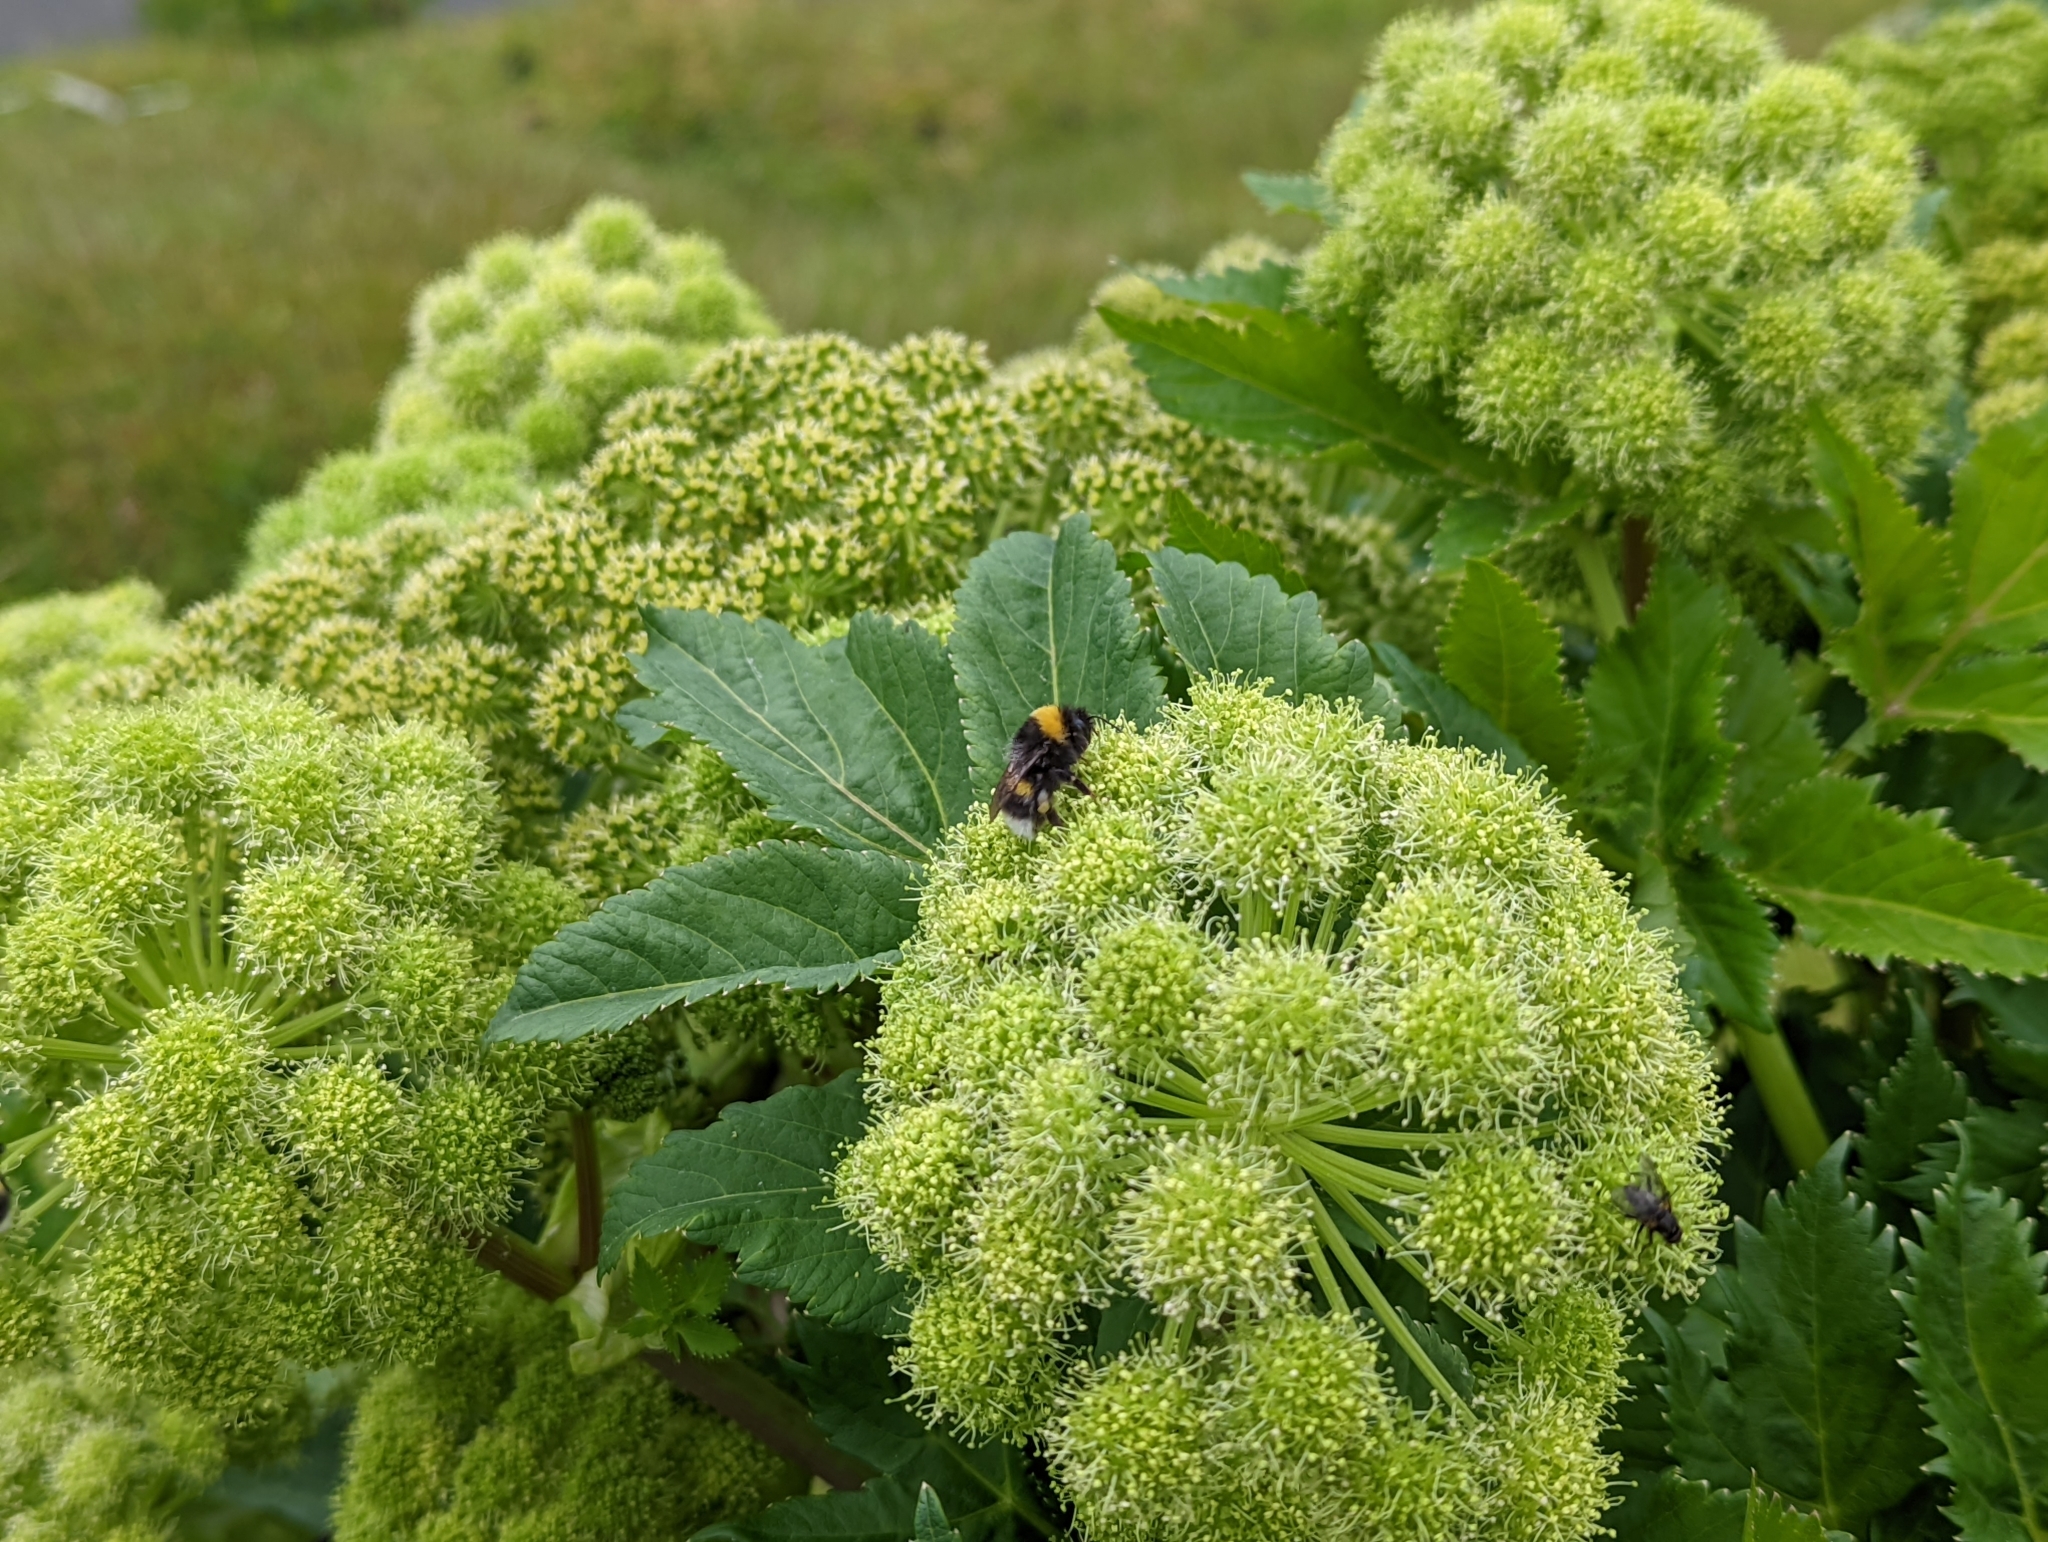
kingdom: Animalia
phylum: Arthropoda
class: Insecta
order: Hymenoptera
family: Apidae
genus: Bombus
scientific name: Bombus lucorum
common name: White-tailed bumblebee
